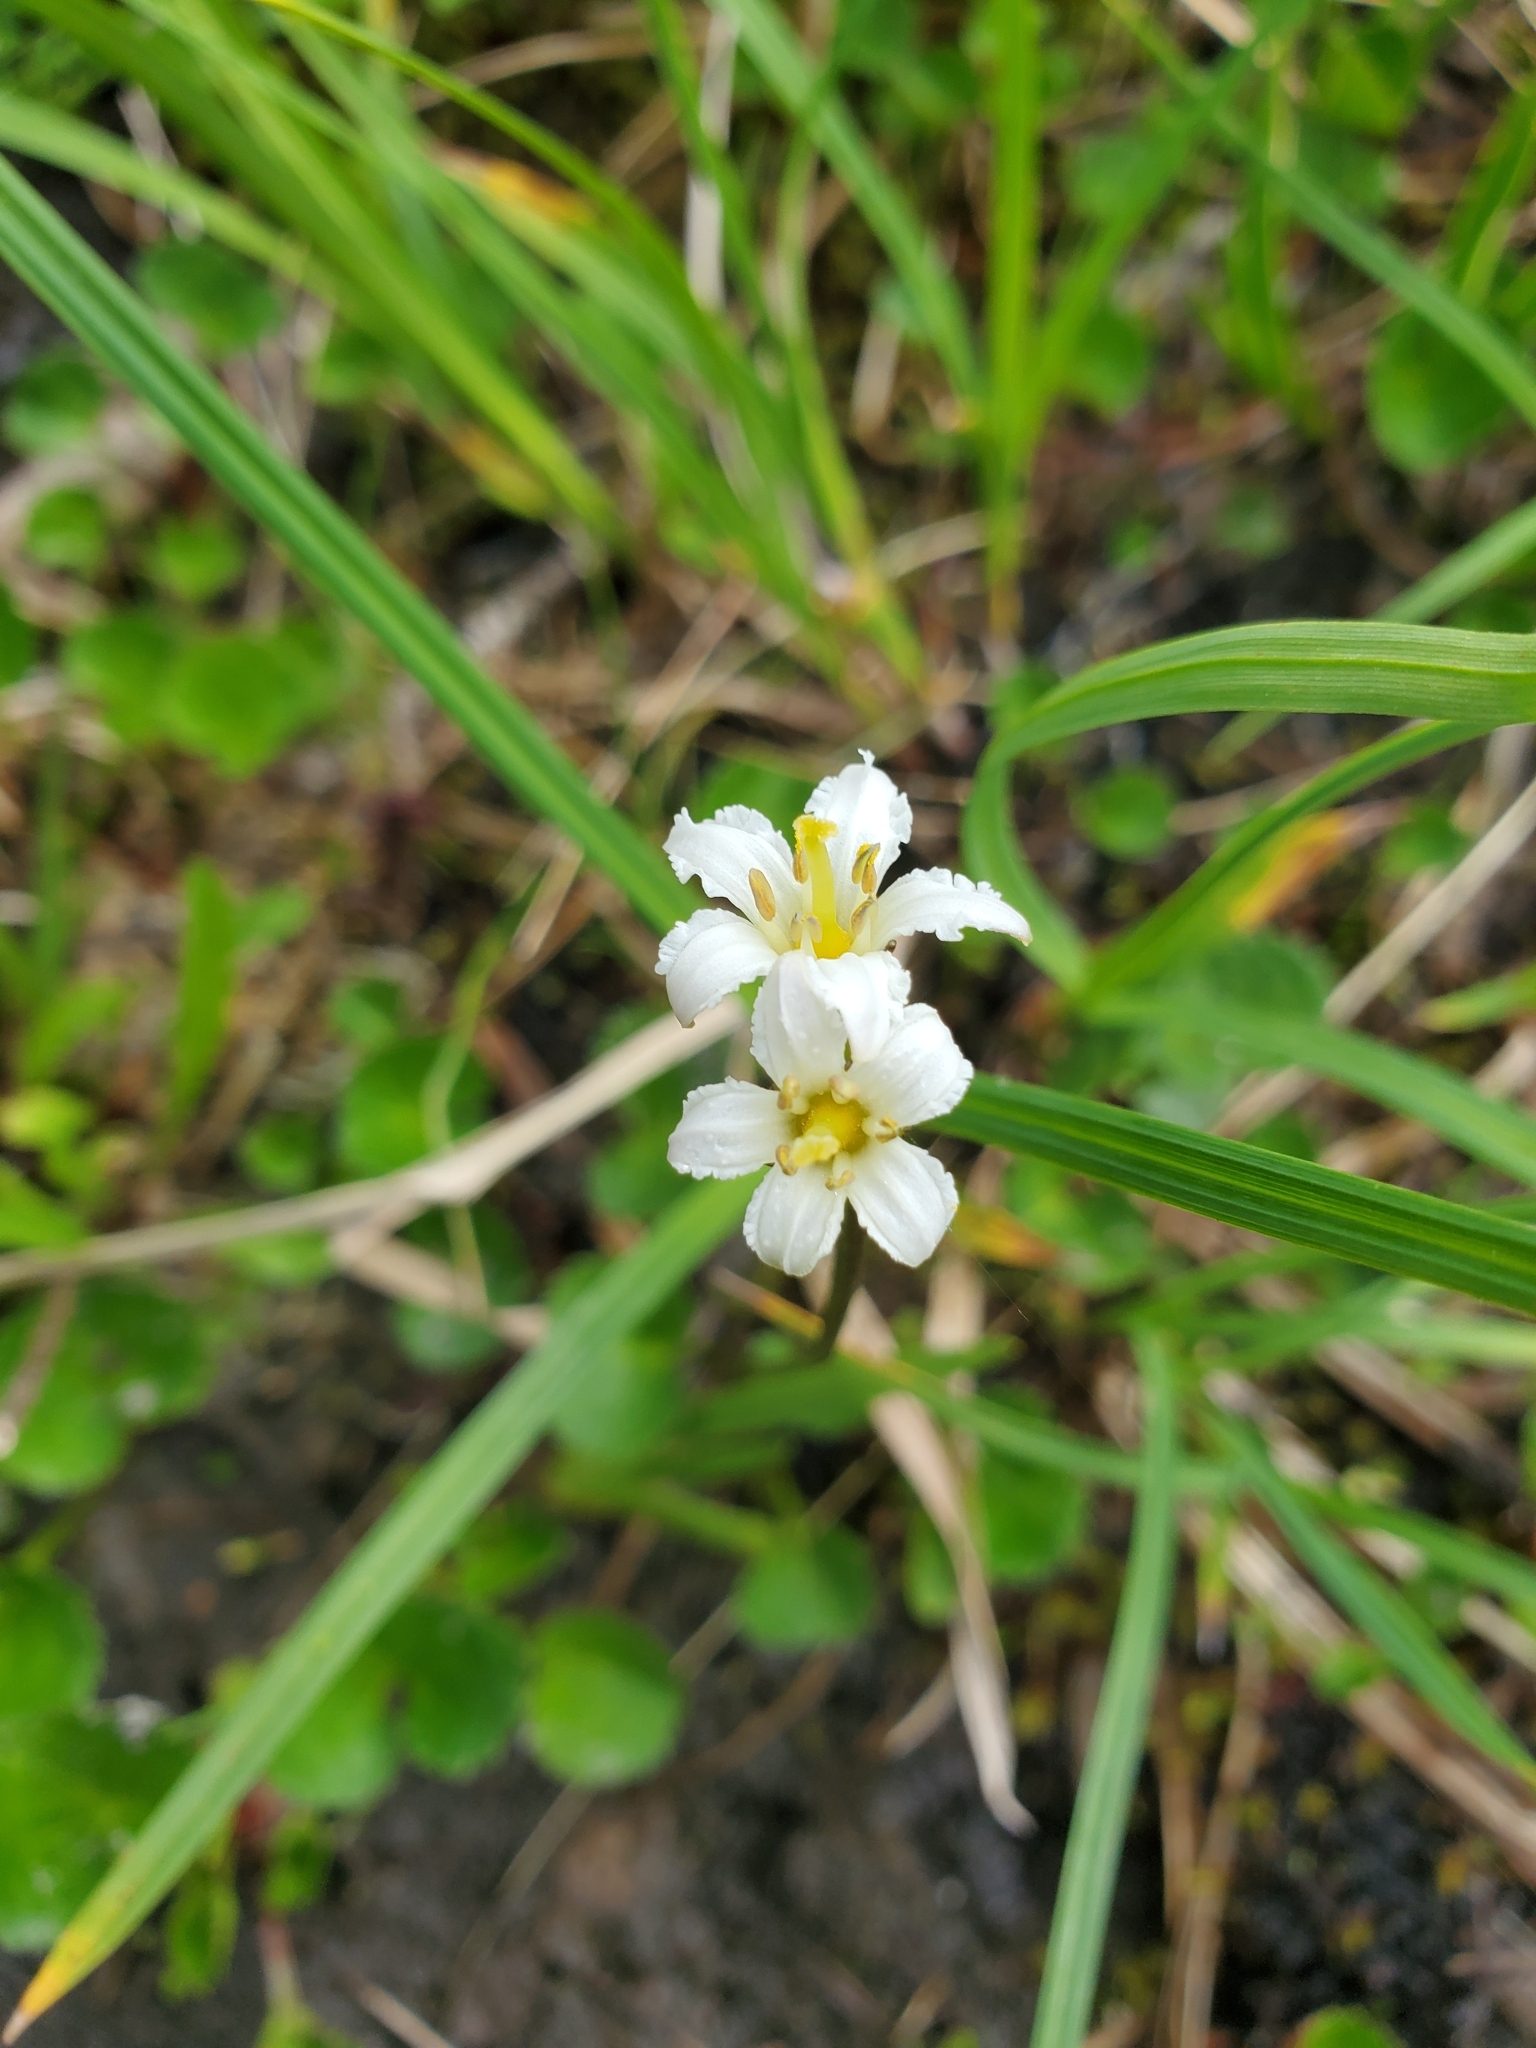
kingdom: Plantae
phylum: Tracheophyta
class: Magnoliopsida
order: Asterales
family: Menyanthaceae
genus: Nephrophyllidium
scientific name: Nephrophyllidium crista-galli
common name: Deer-cabbage
